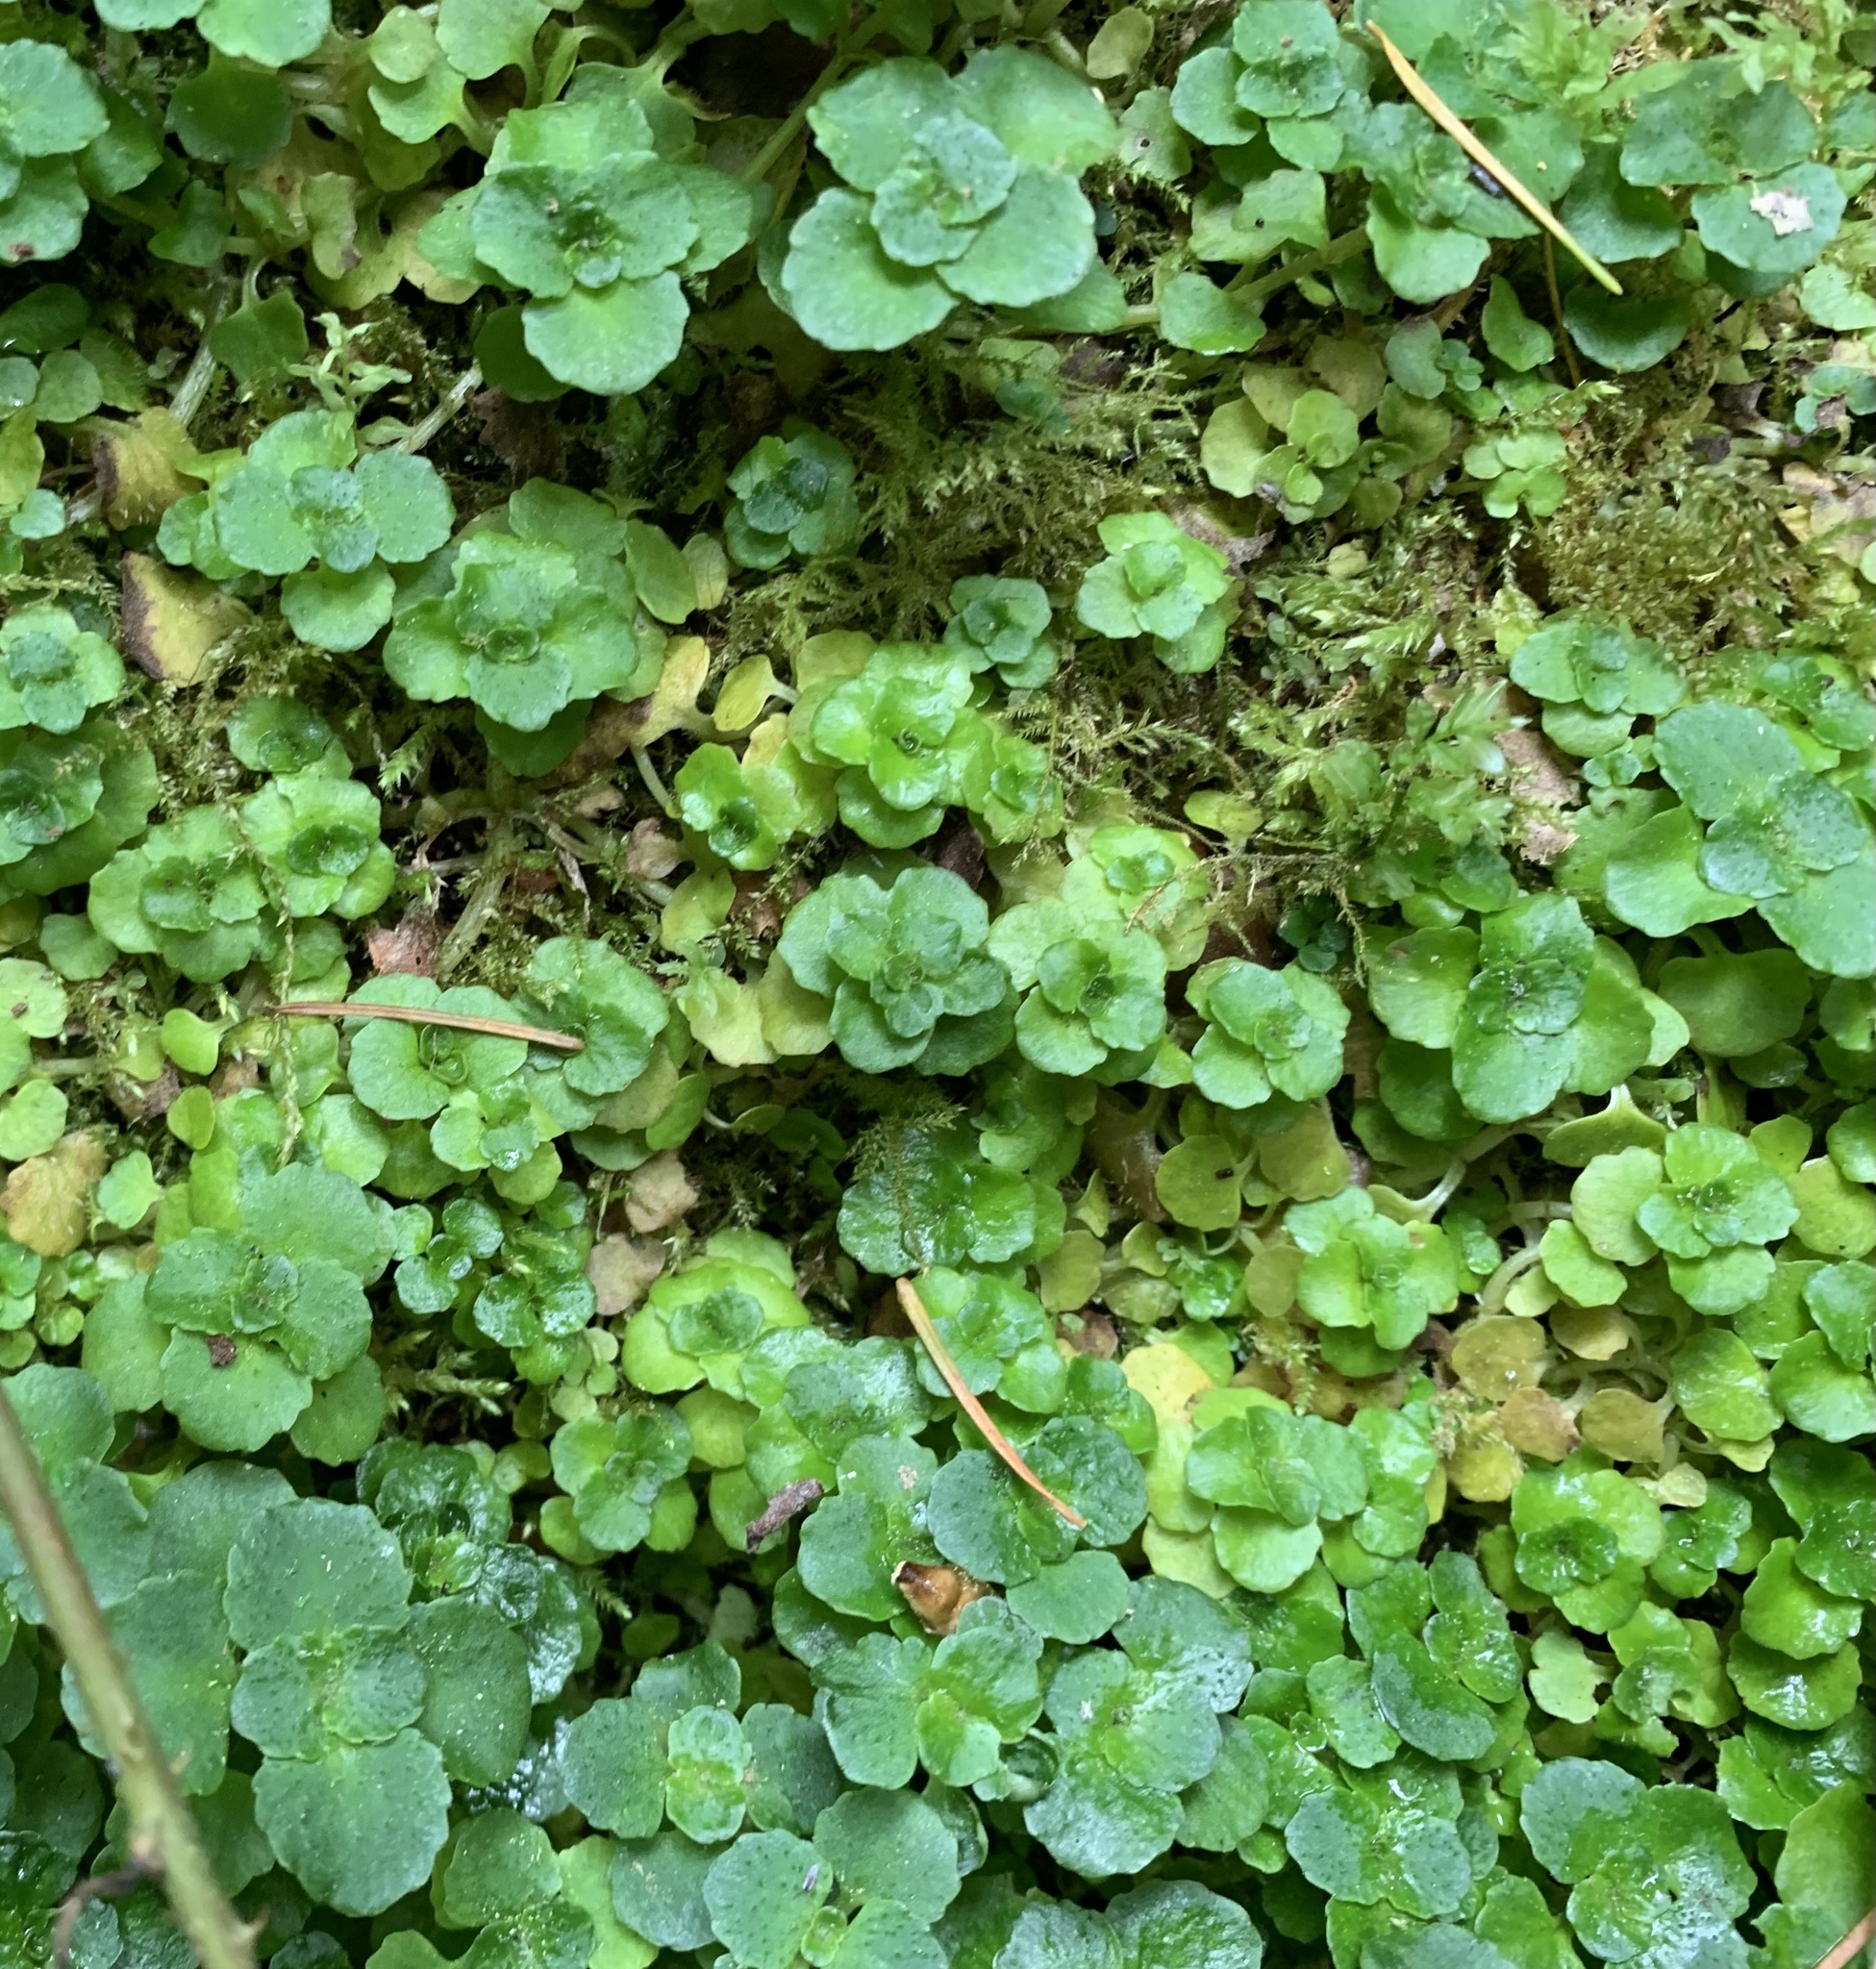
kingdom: Plantae
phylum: Tracheophyta
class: Magnoliopsida
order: Saxifragales
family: Saxifragaceae
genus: Chrysosplenium
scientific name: Chrysosplenium oppositifolium
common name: Opposite-leaved golden-saxifrage
